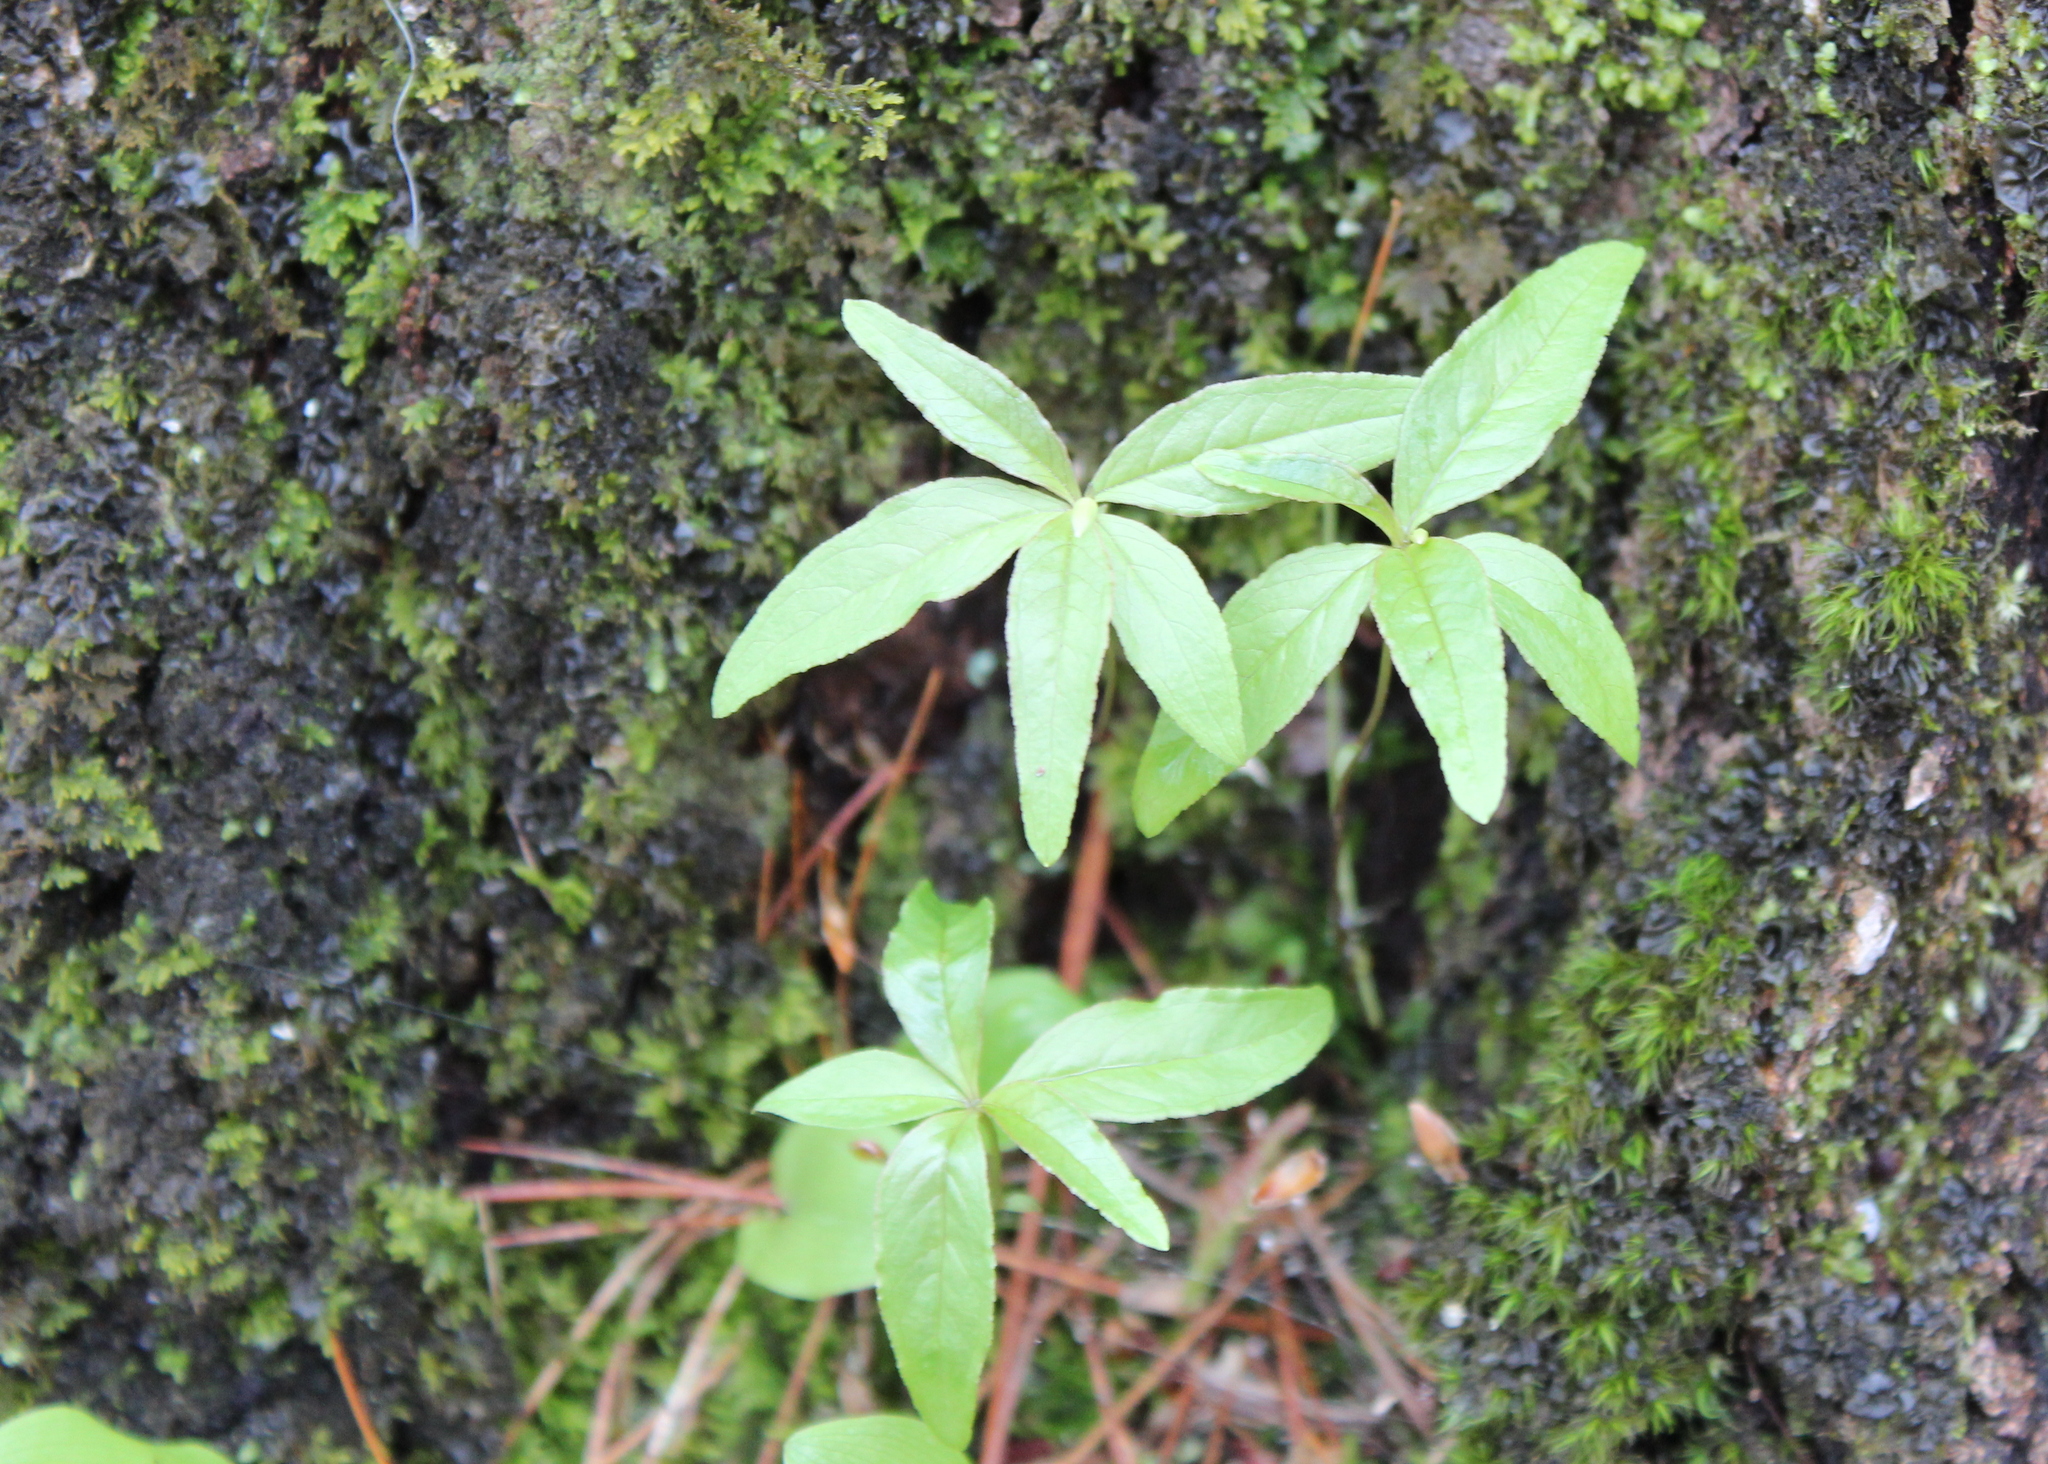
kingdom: Plantae
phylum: Tracheophyta
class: Magnoliopsida
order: Ericales
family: Primulaceae
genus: Lysimachia
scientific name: Lysimachia borealis
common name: American starflower
